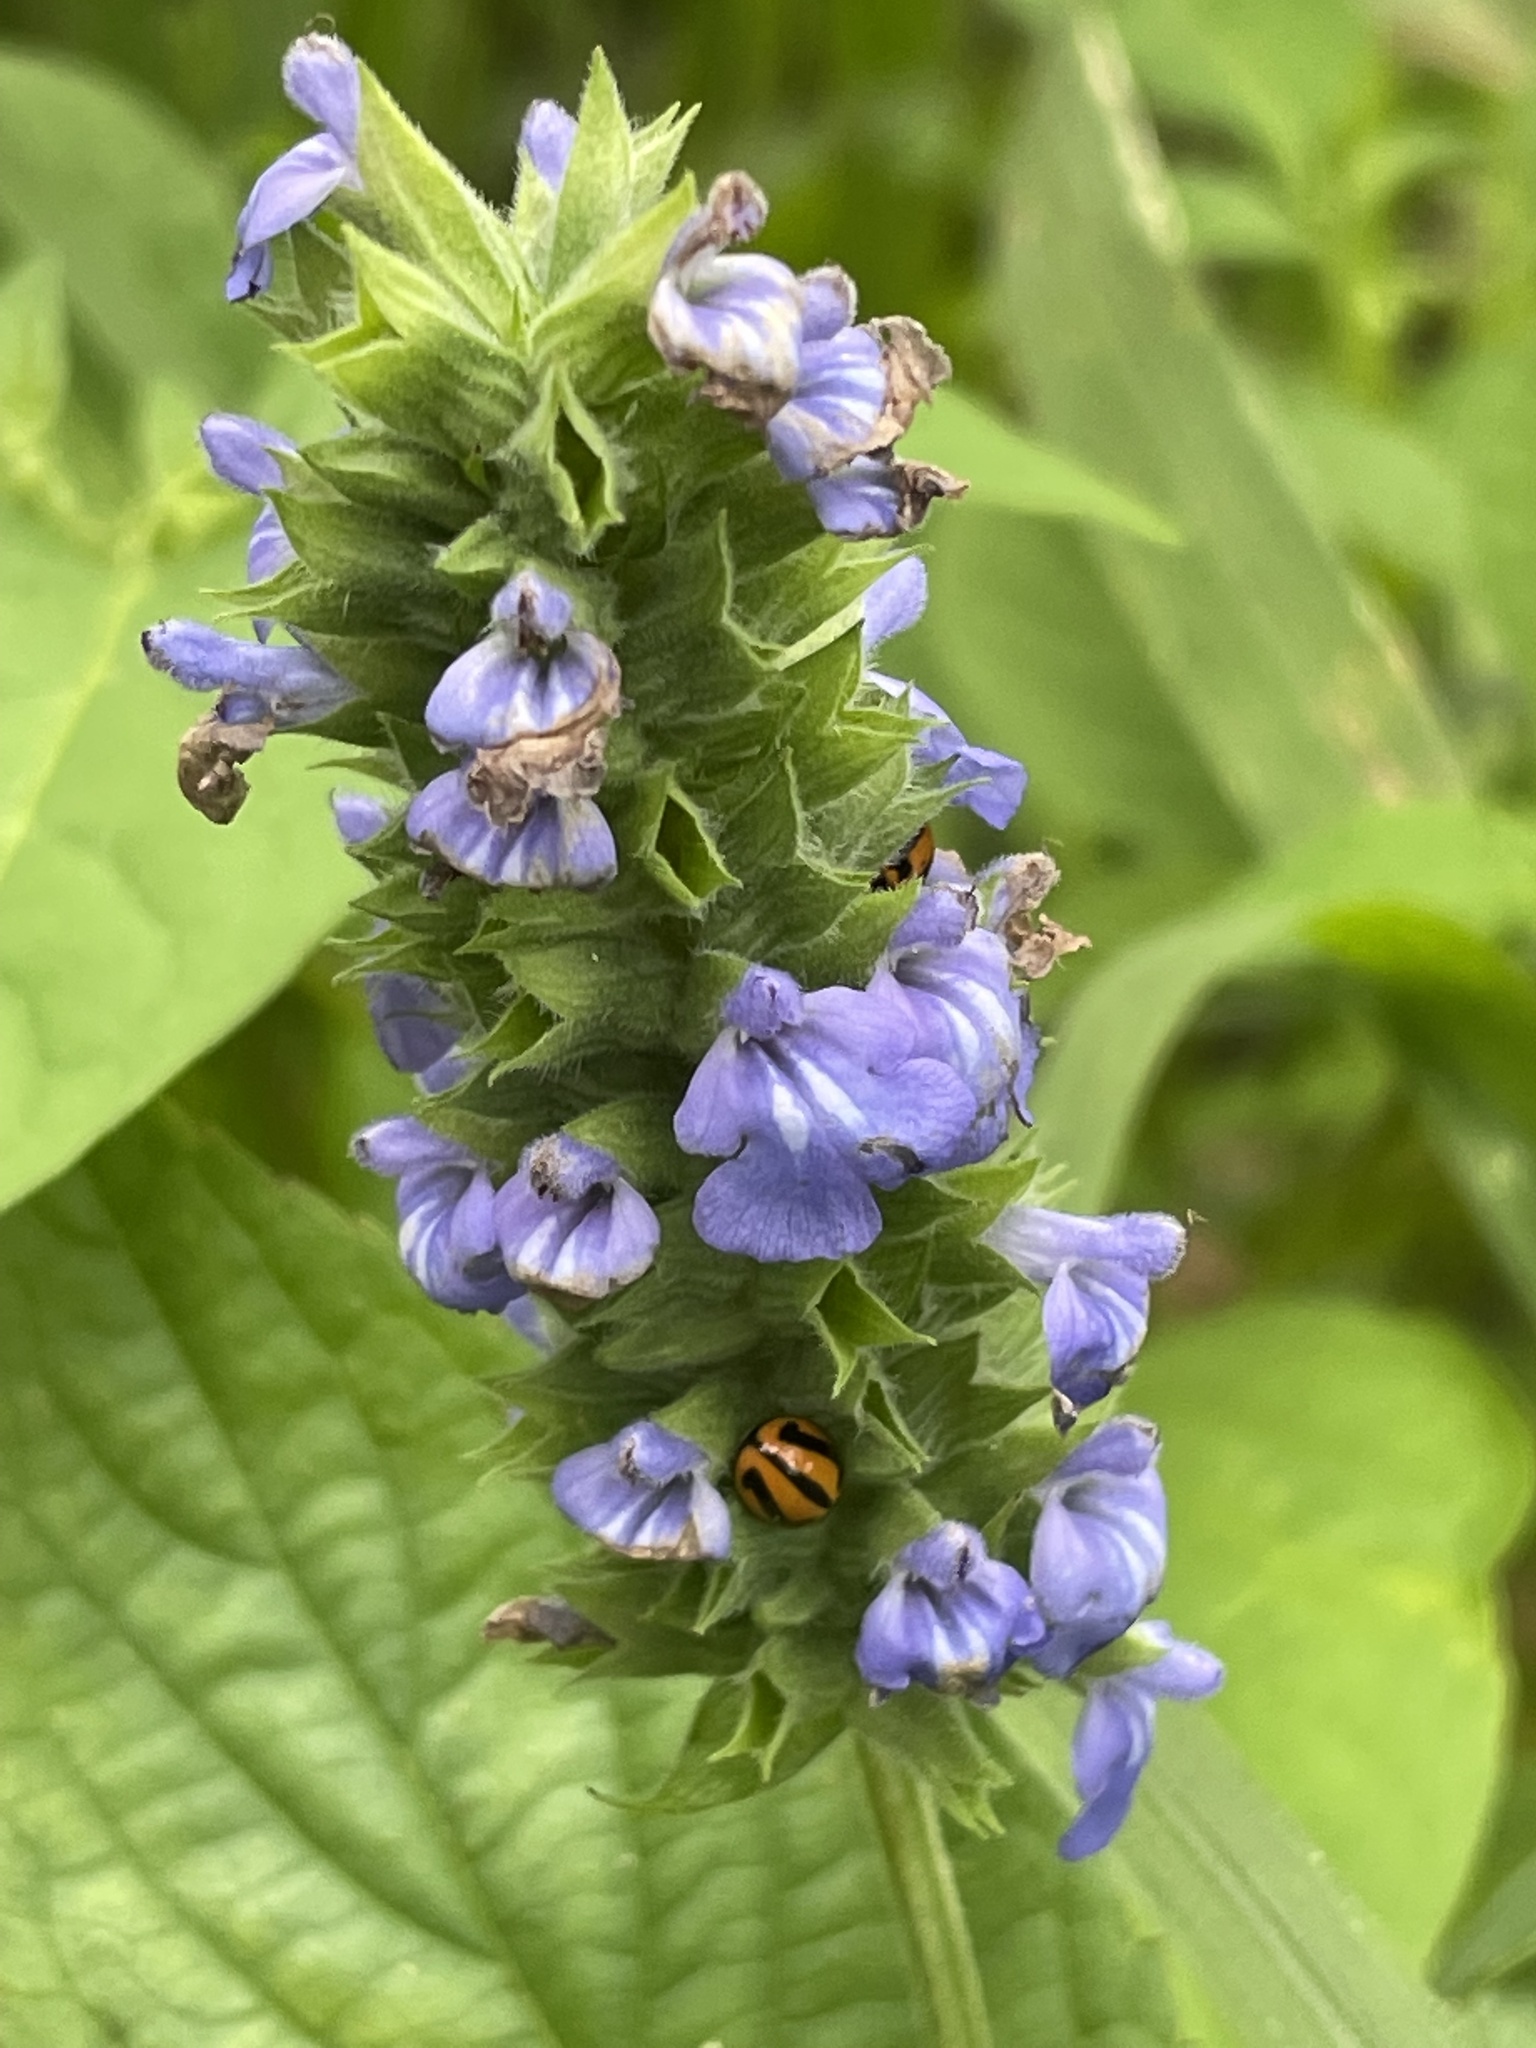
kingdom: Plantae
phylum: Tracheophyta
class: Magnoliopsida
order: Lamiales
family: Lamiaceae
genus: Salvia
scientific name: Salvia hispanica
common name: Chia
